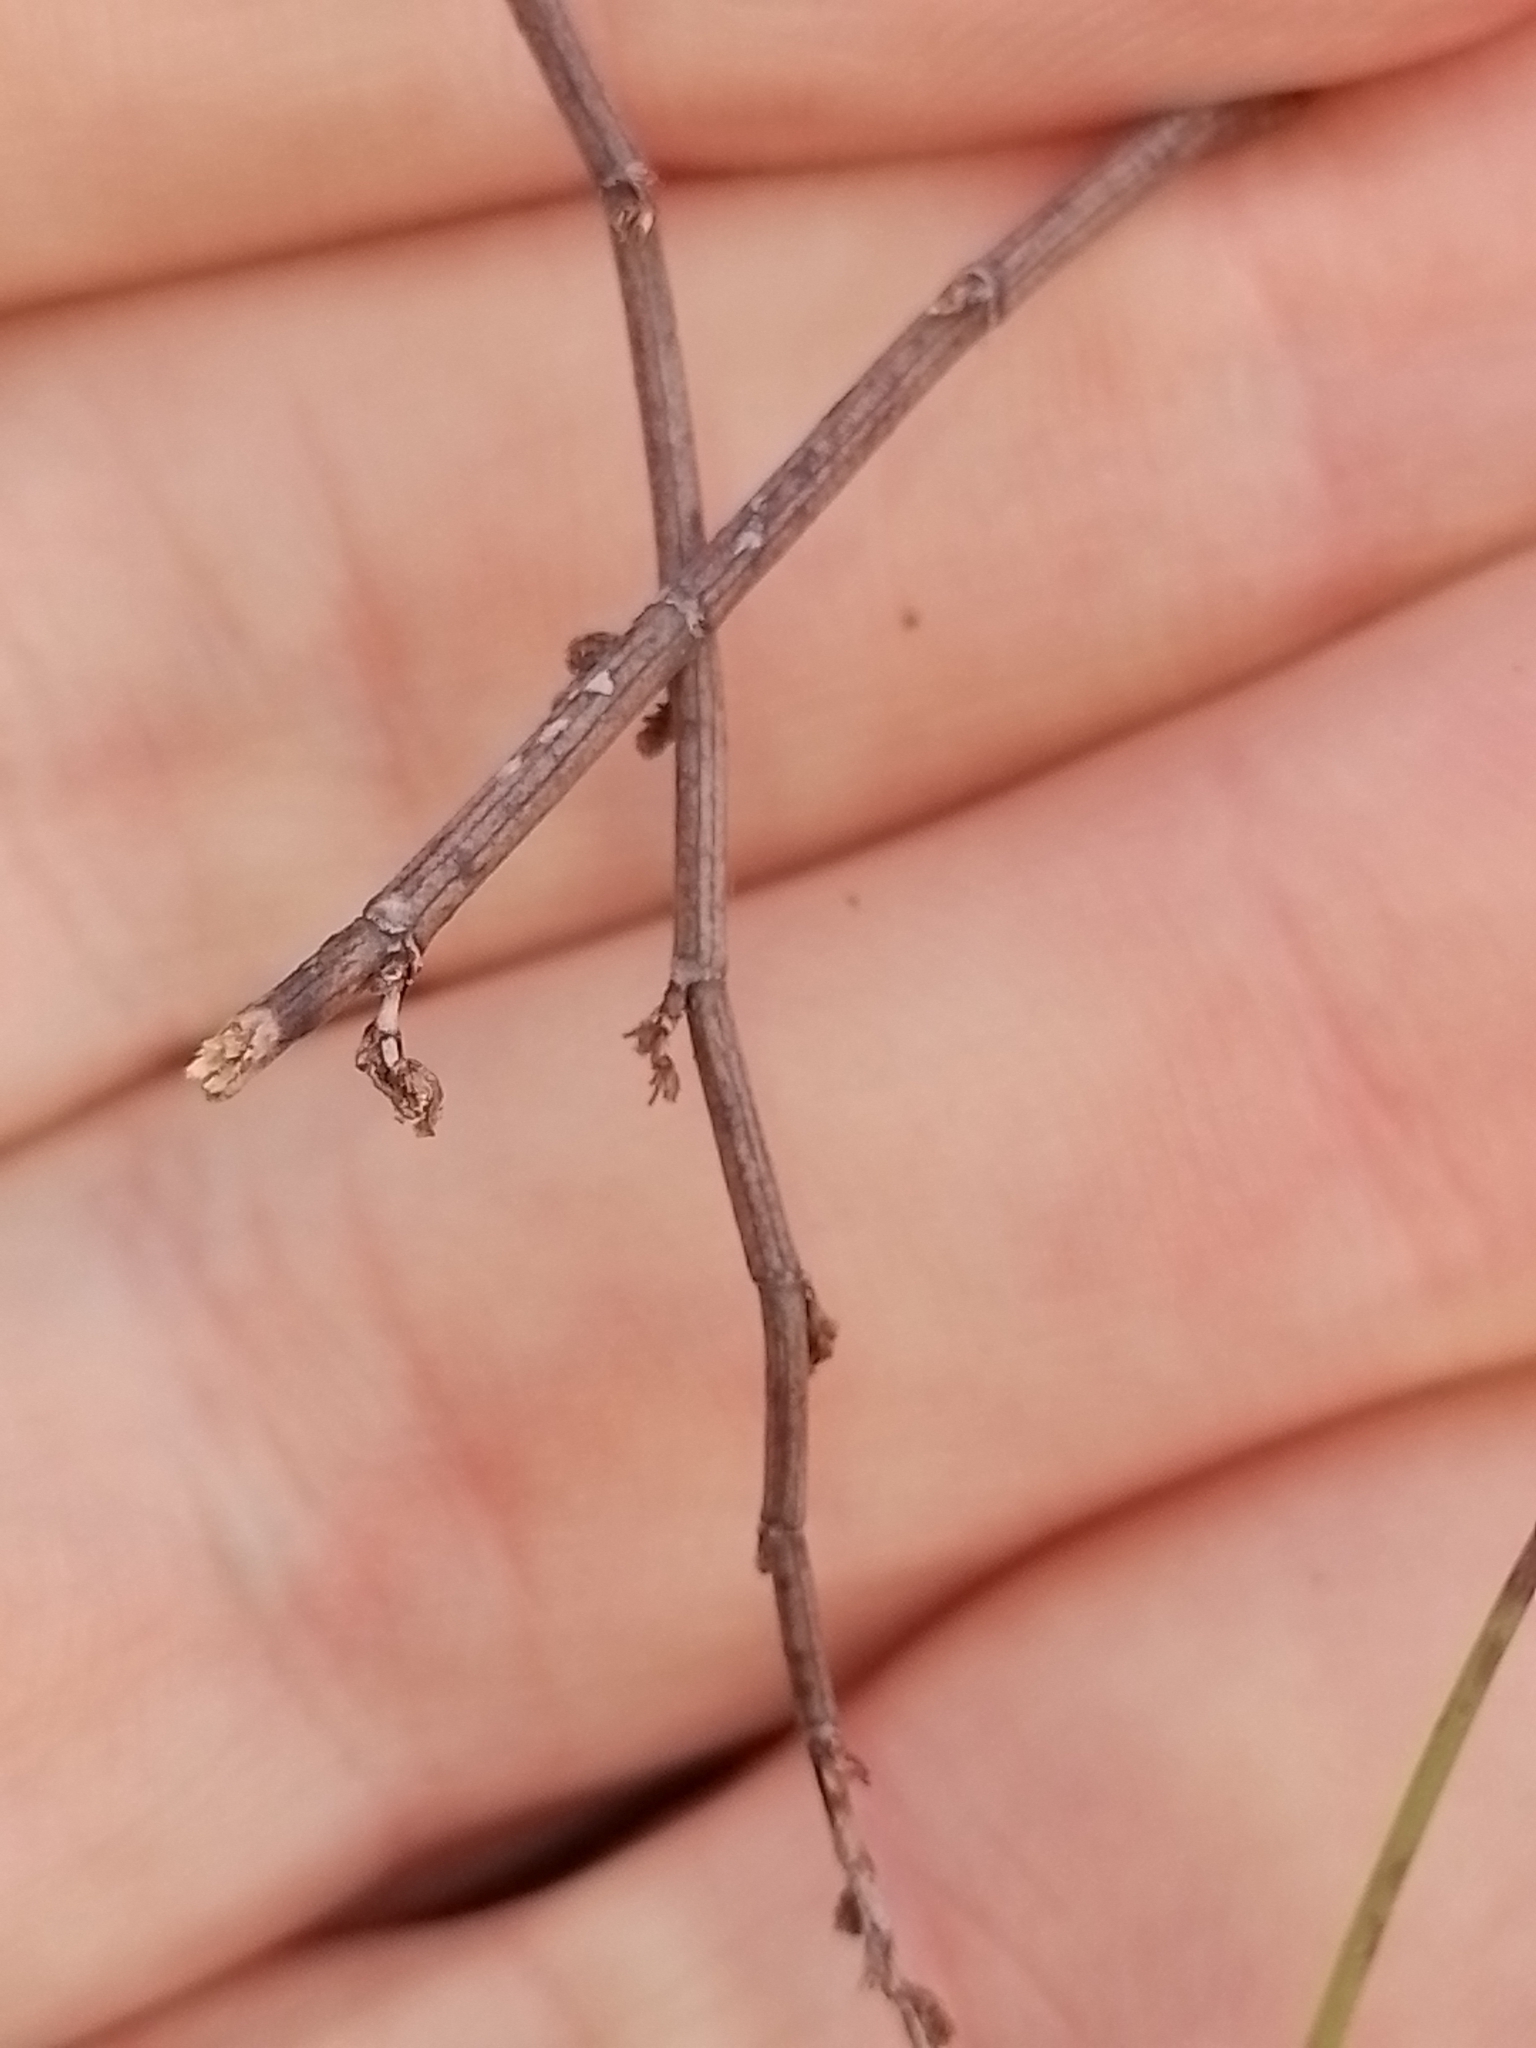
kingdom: Plantae
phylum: Tracheophyta
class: Magnoliopsida
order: Caryophyllales
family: Polygonaceae
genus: Muehlenbeckia
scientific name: Muehlenbeckia ephedroides
